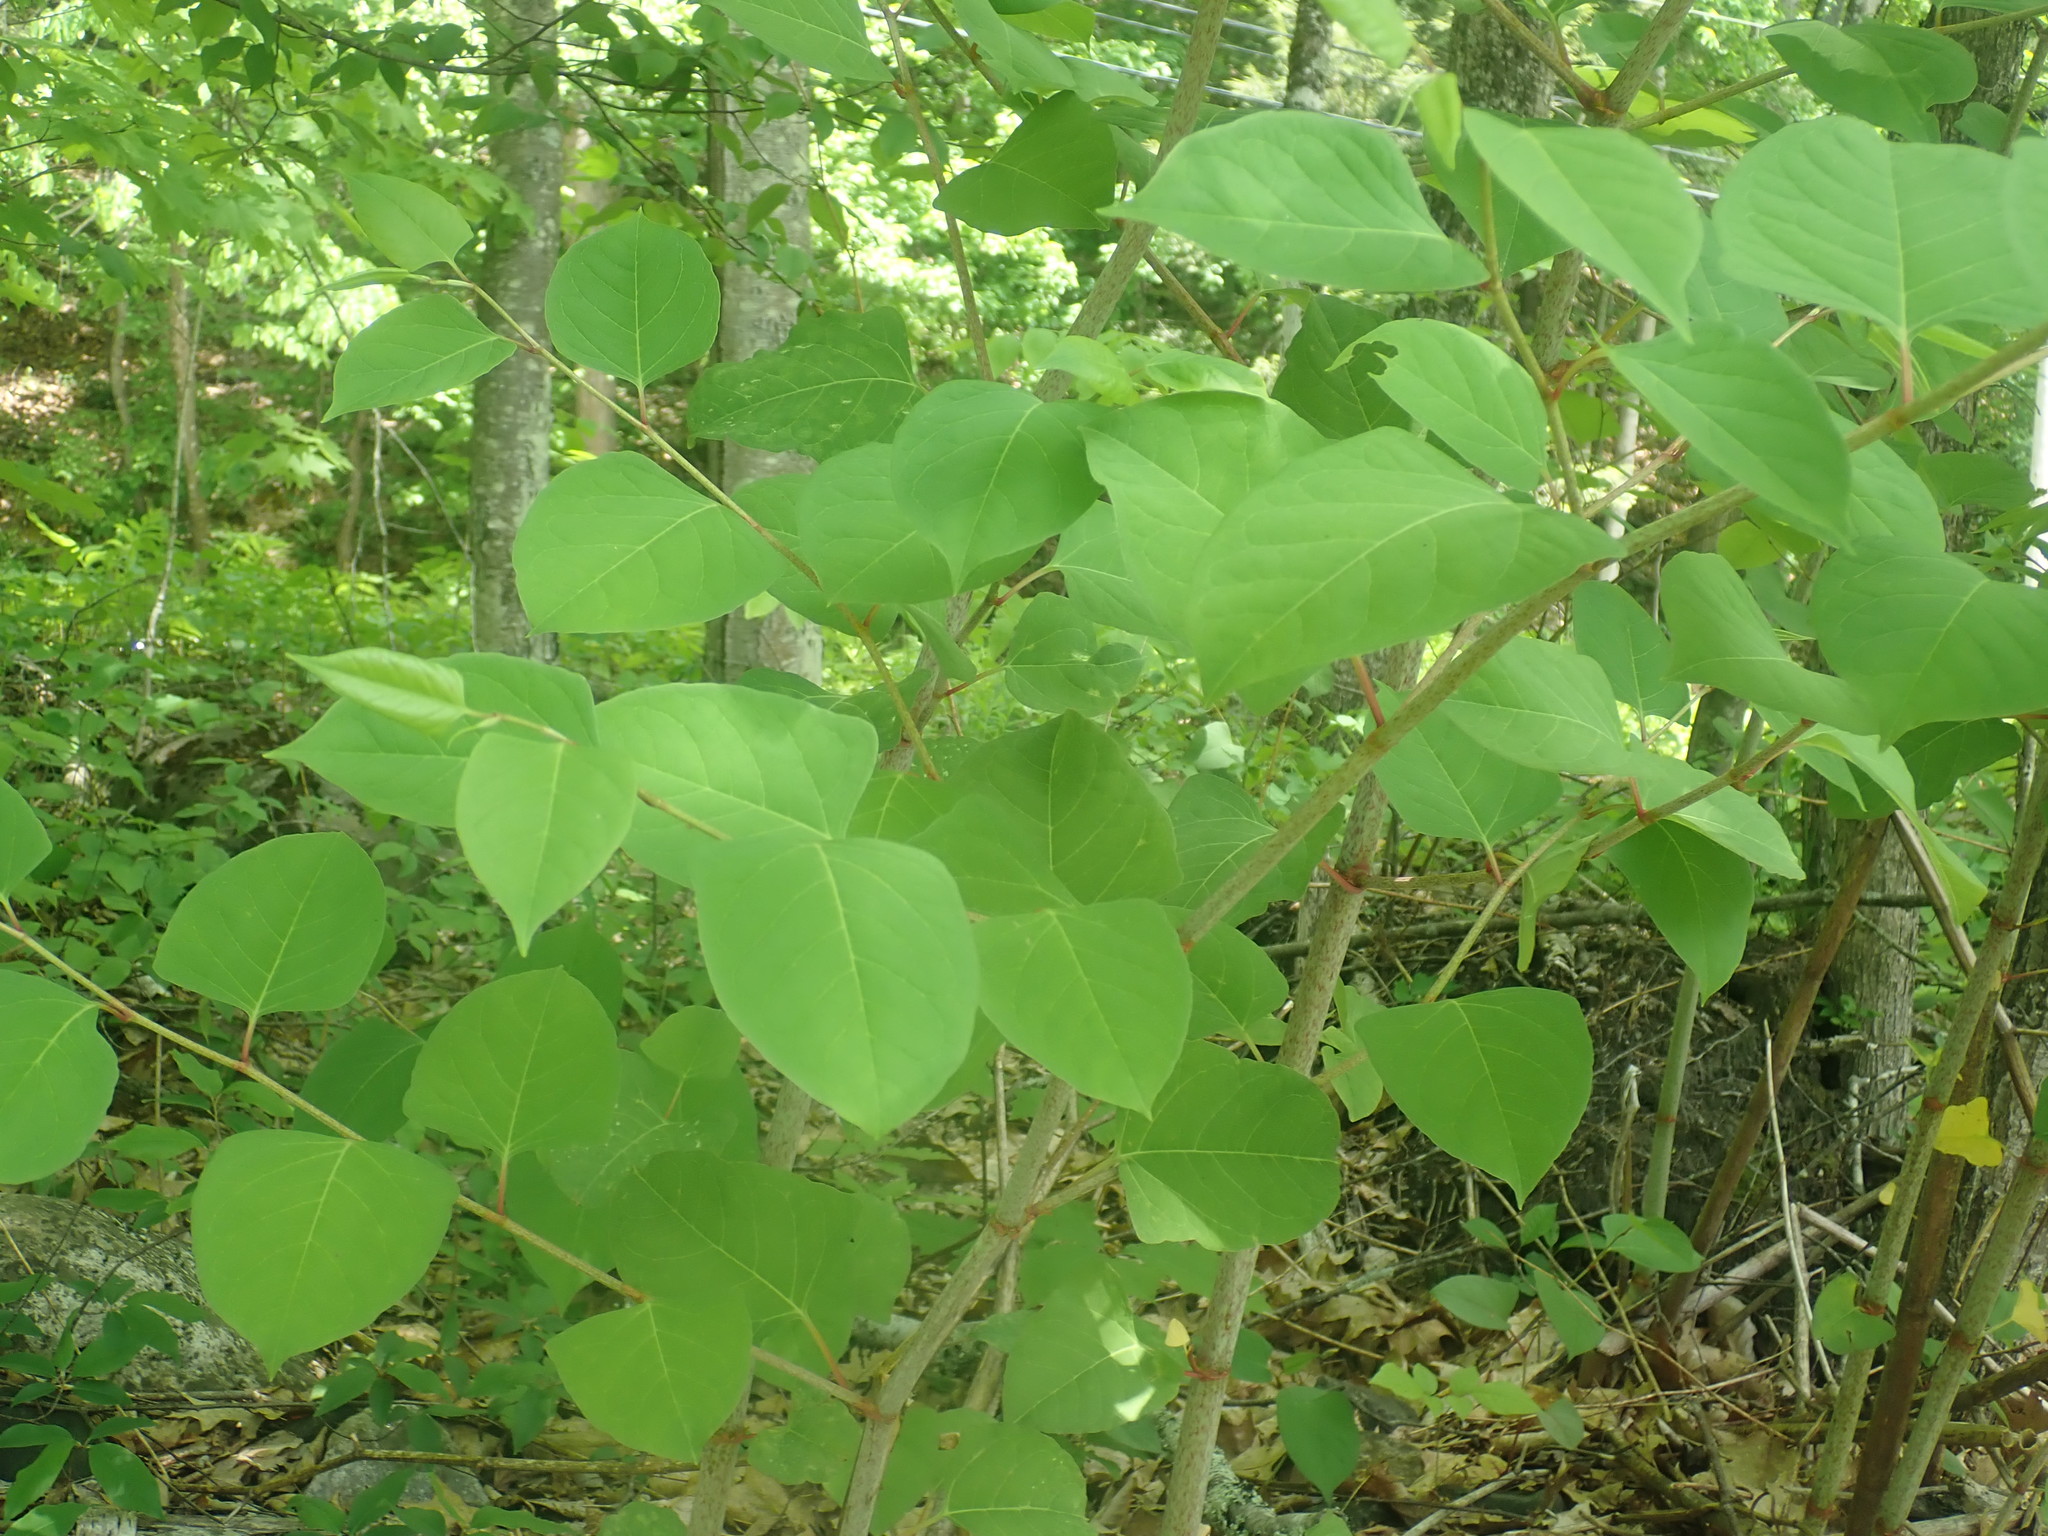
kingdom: Plantae
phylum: Tracheophyta
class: Magnoliopsida
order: Caryophyllales
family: Polygonaceae
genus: Reynoutria
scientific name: Reynoutria japonica
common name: Japanese knotweed
